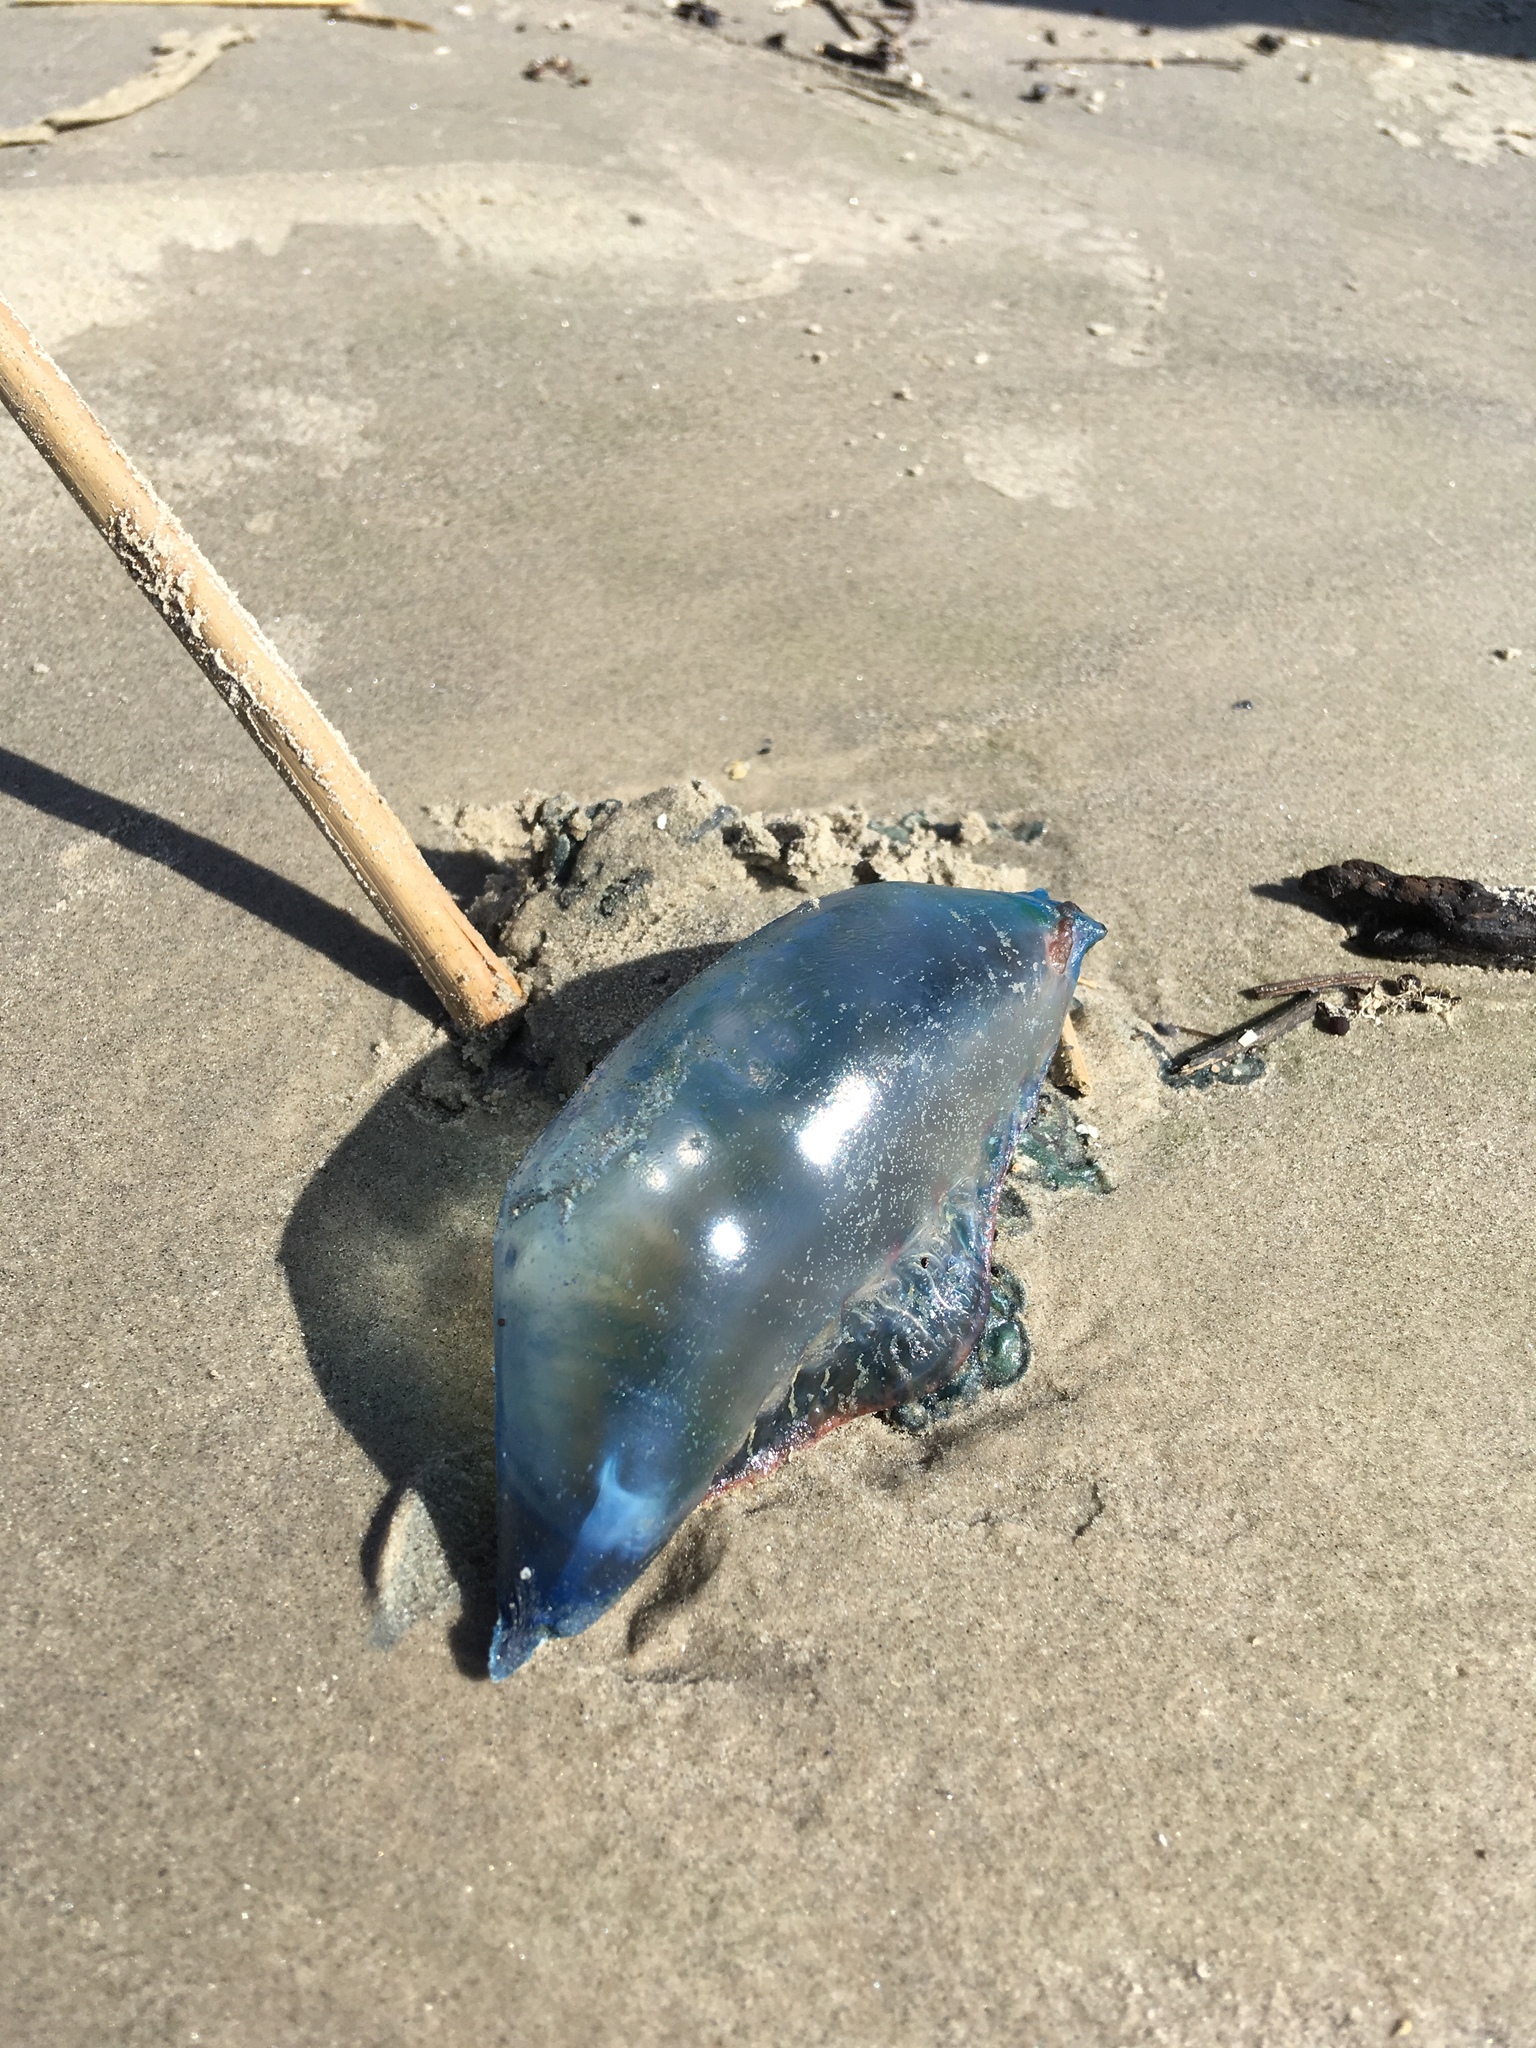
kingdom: Animalia
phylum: Cnidaria
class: Hydrozoa
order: Siphonophorae
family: Physaliidae
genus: Physalia
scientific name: Physalia physalis
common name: Portuguese man-of-war
